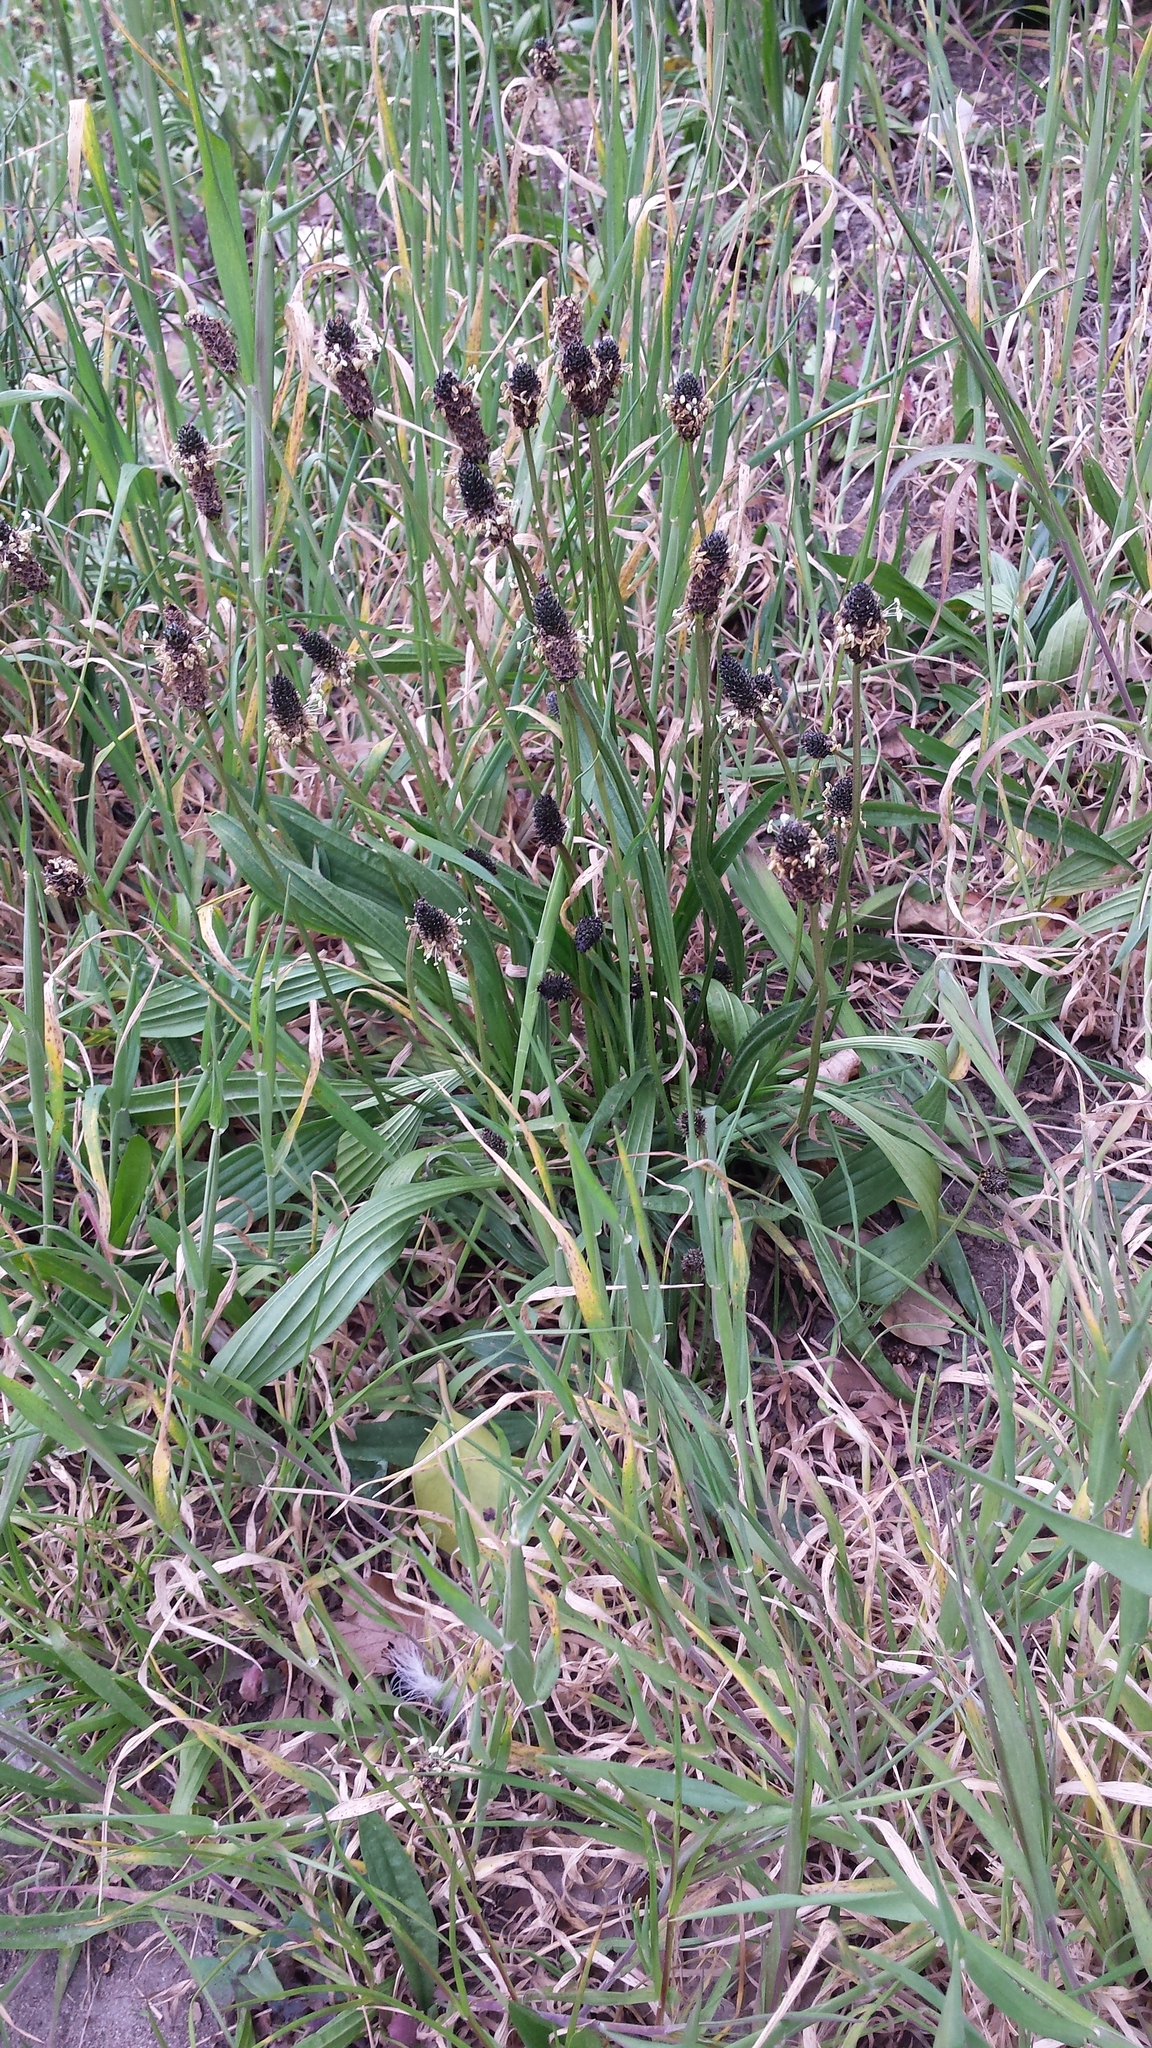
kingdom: Plantae
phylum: Tracheophyta
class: Magnoliopsida
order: Lamiales
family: Plantaginaceae
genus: Plantago
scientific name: Plantago lanceolata
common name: Ribwort plantain
